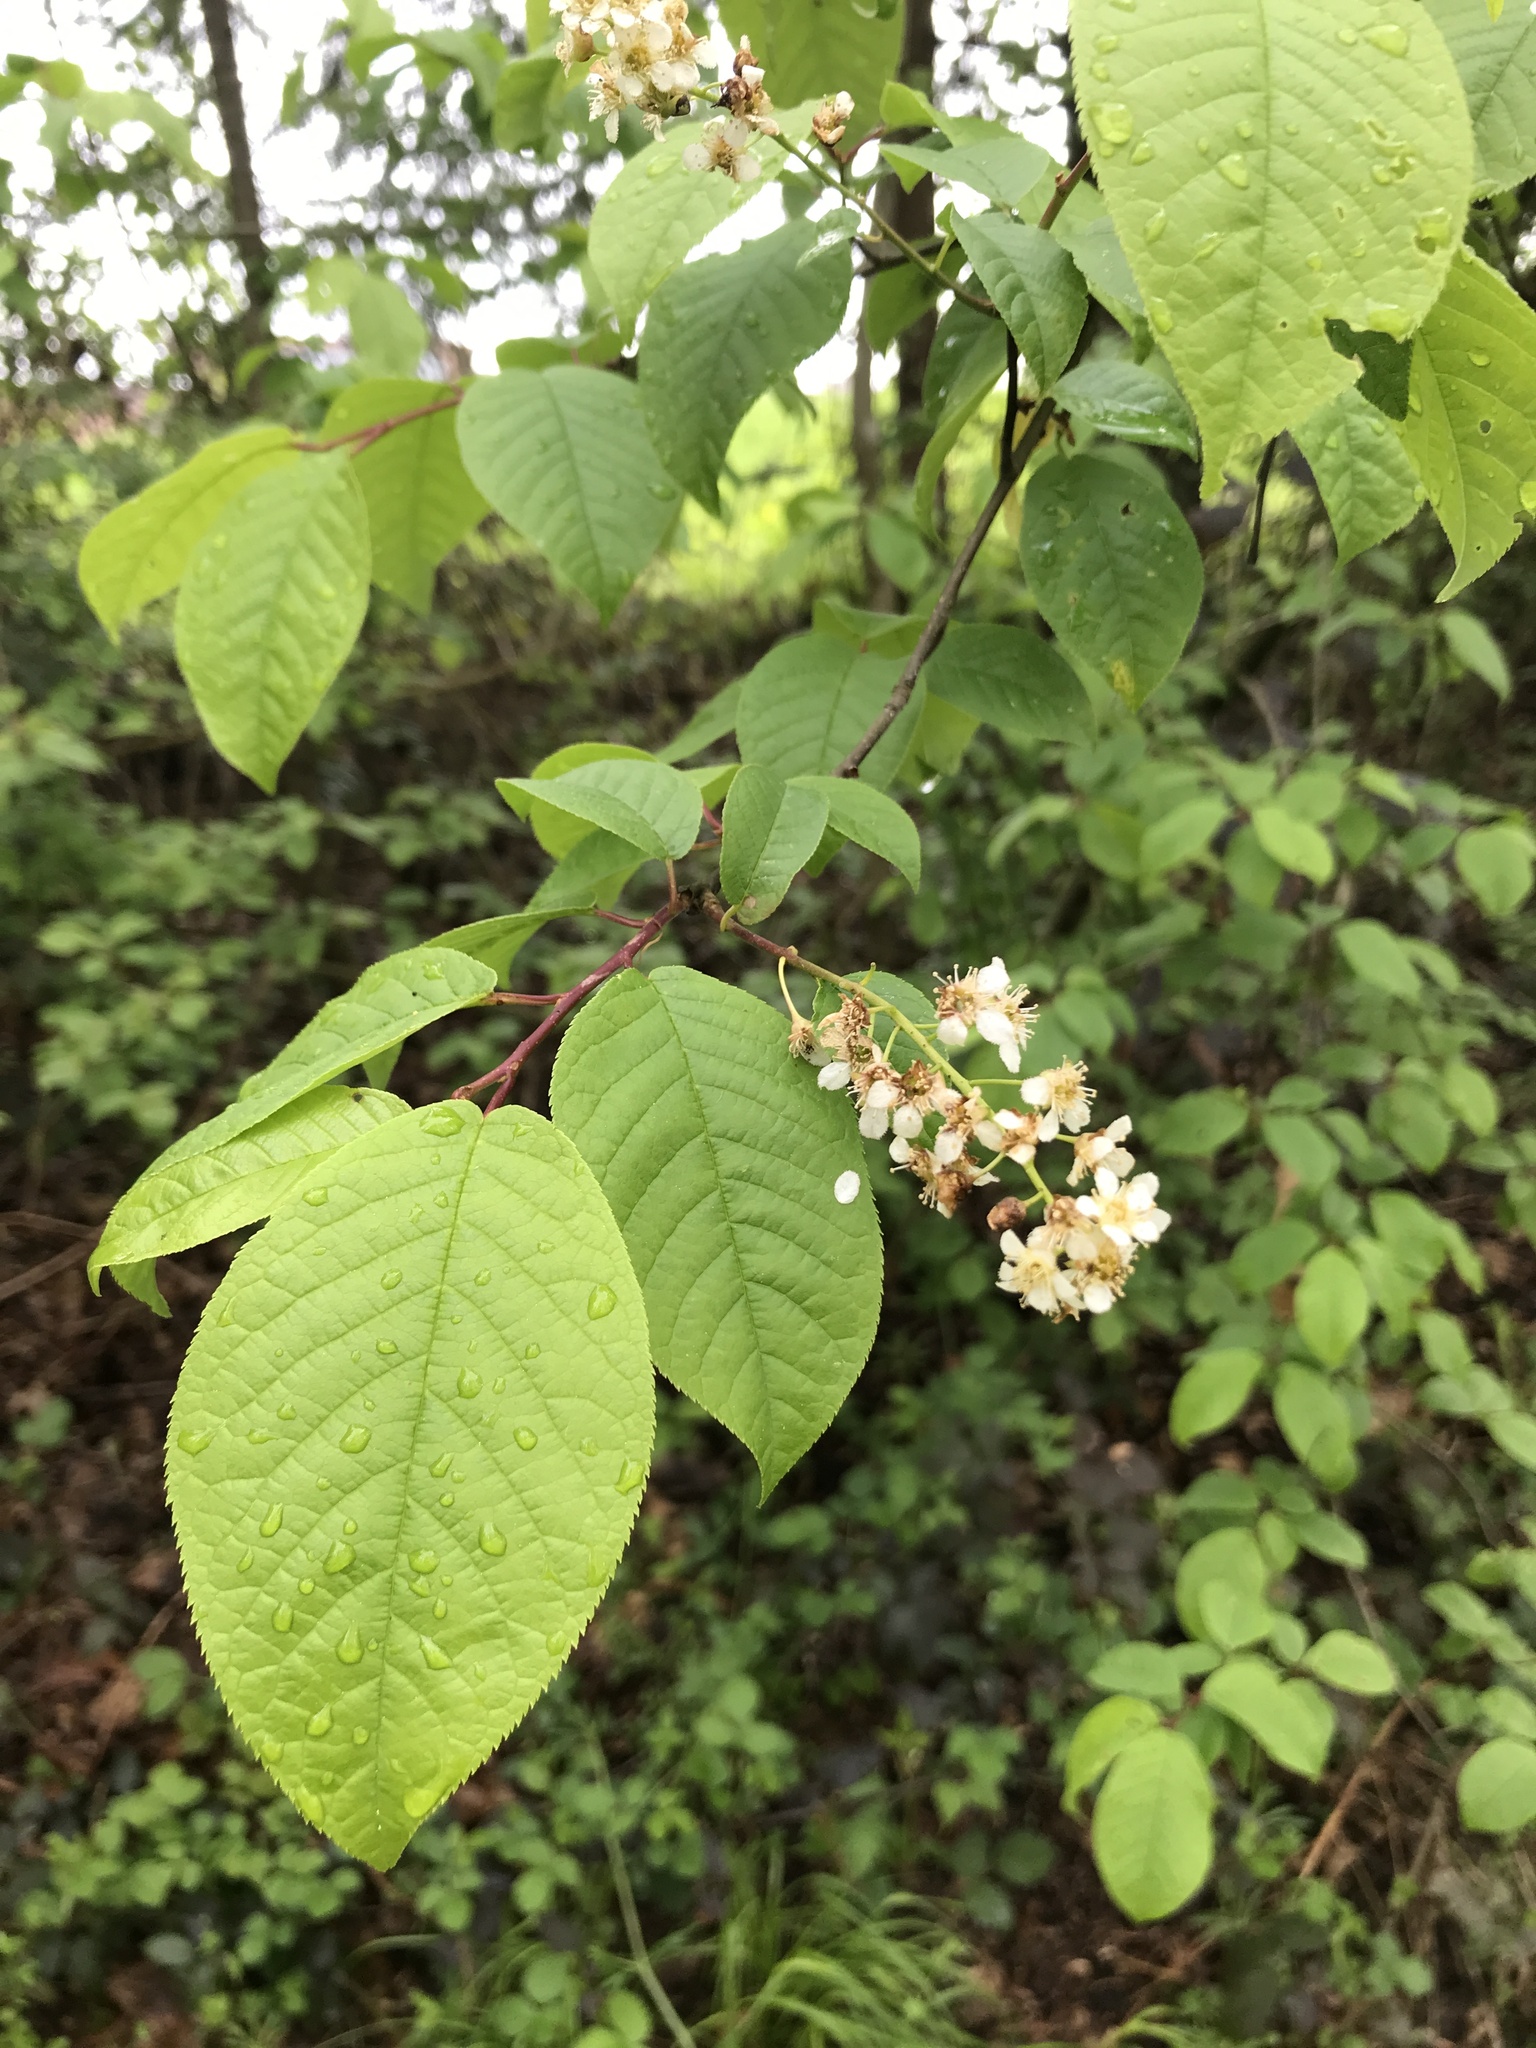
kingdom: Plantae
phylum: Tracheophyta
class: Magnoliopsida
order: Rosales
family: Rosaceae
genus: Prunus
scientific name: Prunus padus
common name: Bird cherry
